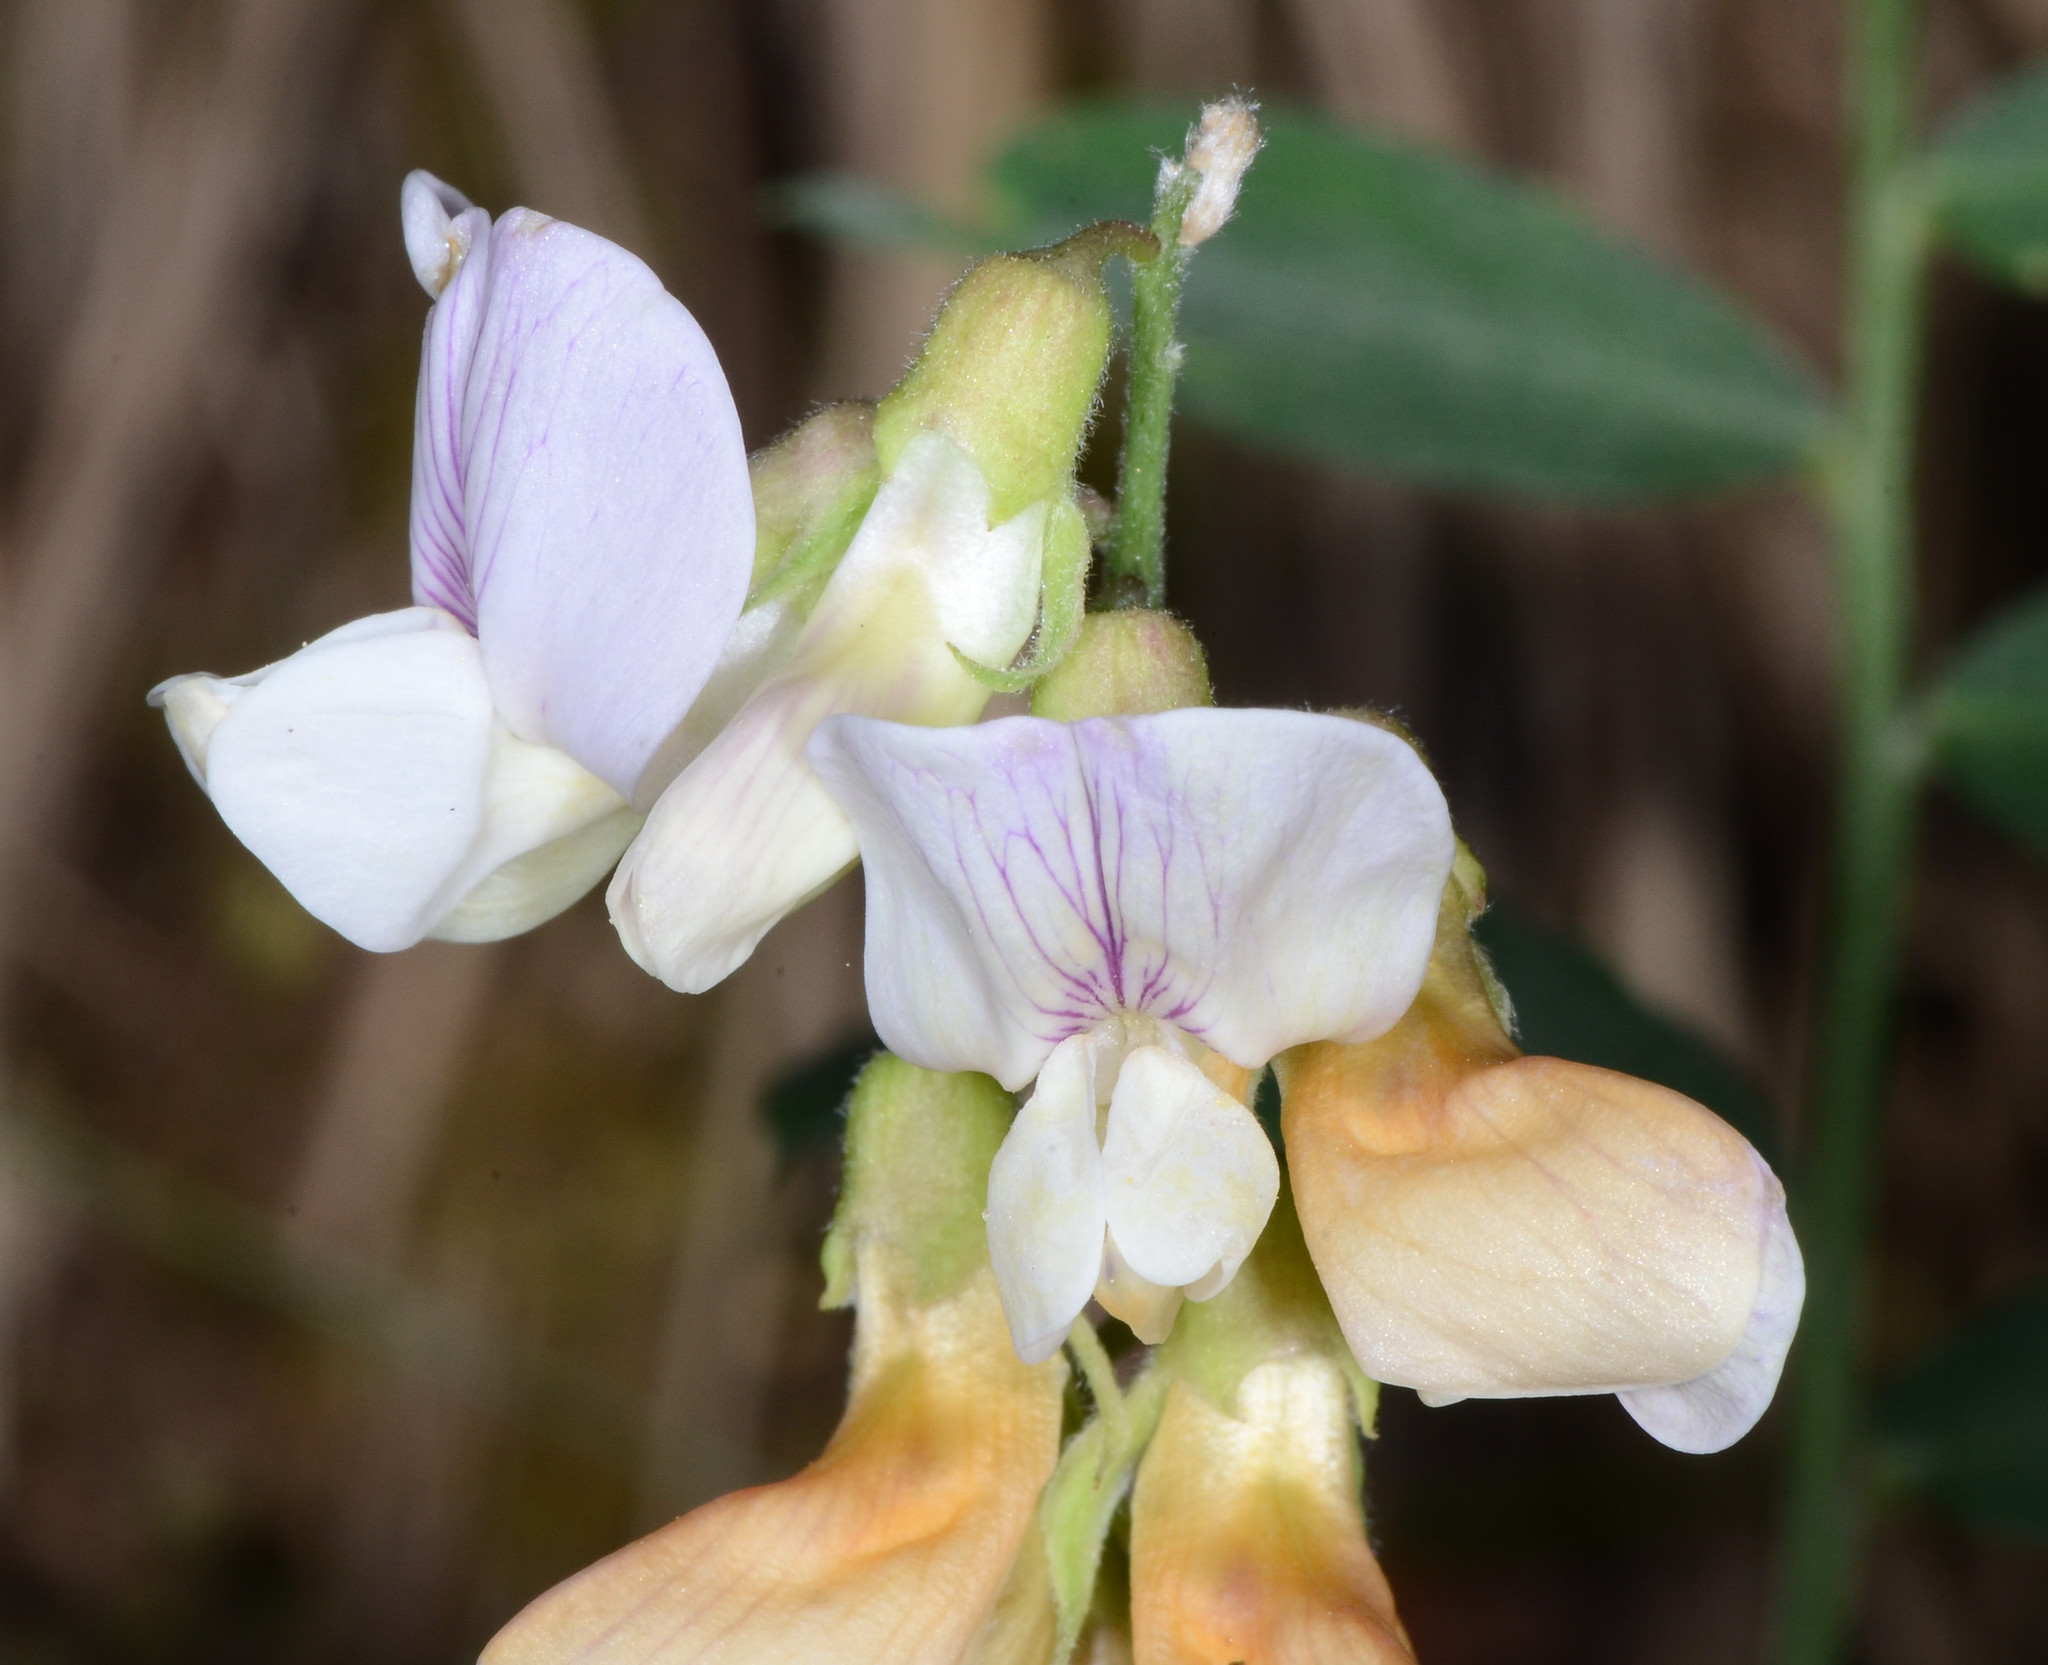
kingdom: Plantae
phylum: Tracheophyta
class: Magnoliopsida
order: Fabales
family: Fabaceae
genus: Lathyrus
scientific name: Lathyrus vestitus
